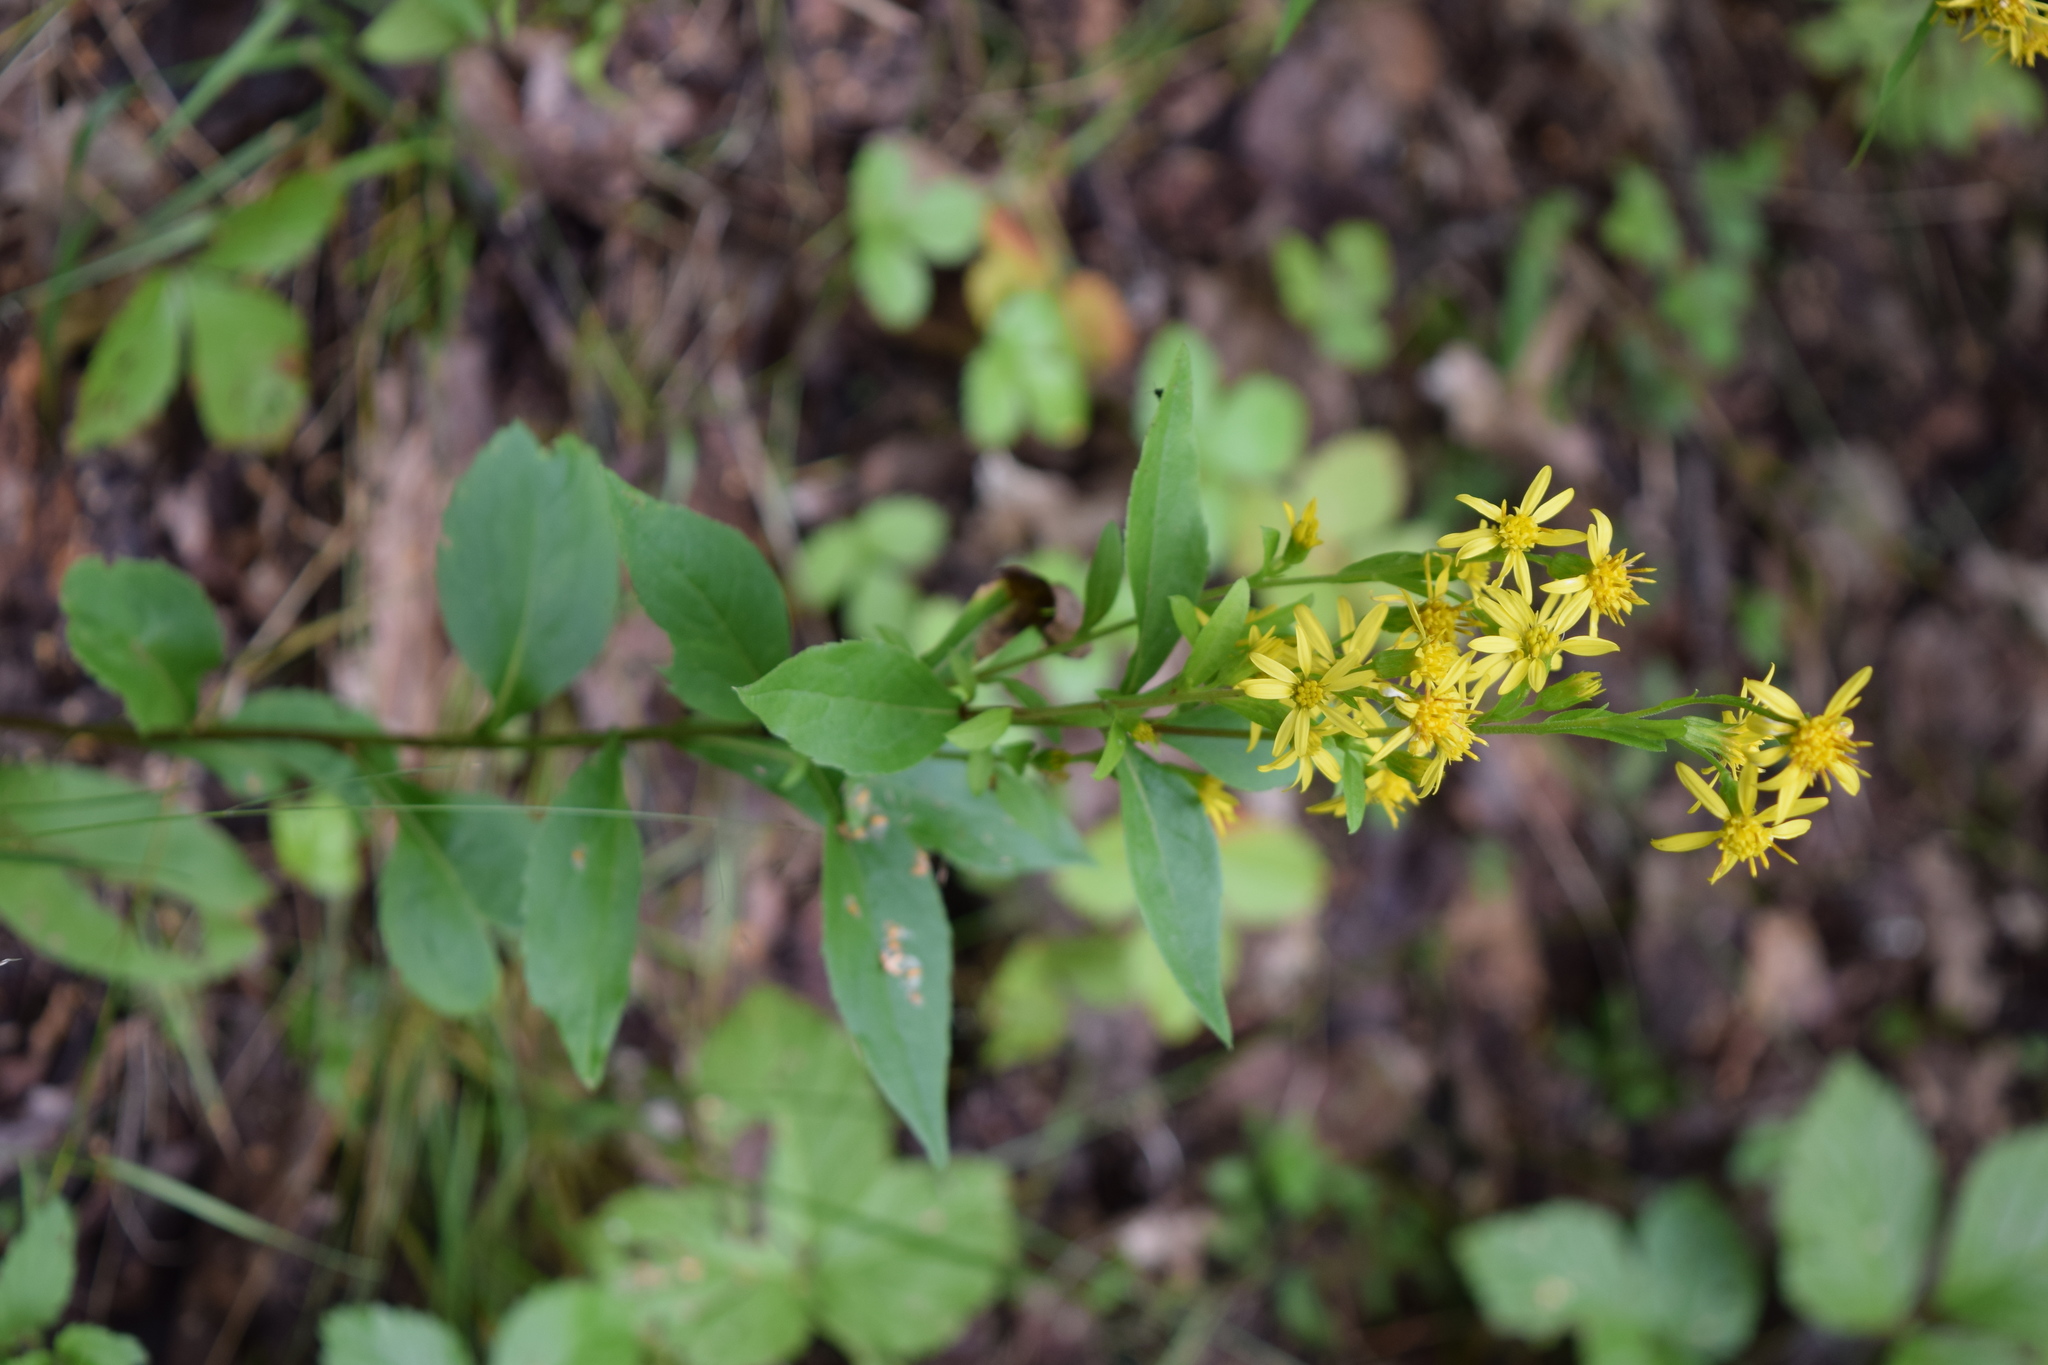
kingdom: Plantae
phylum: Tracheophyta
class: Magnoliopsida
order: Asterales
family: Asteraceae
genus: Solidago
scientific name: Solidago virgaurea
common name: Goldenrod
